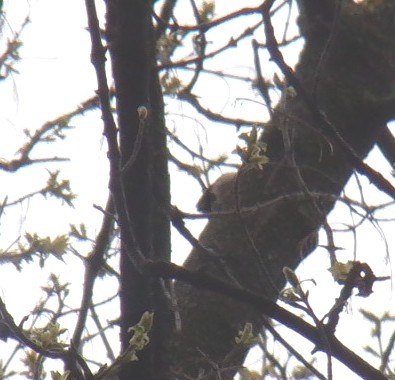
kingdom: Animalia
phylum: Chordata
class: Aves
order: Passeriformes
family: Certhiidae
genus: Certhia
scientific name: Certhia americana
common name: Brown creeper
